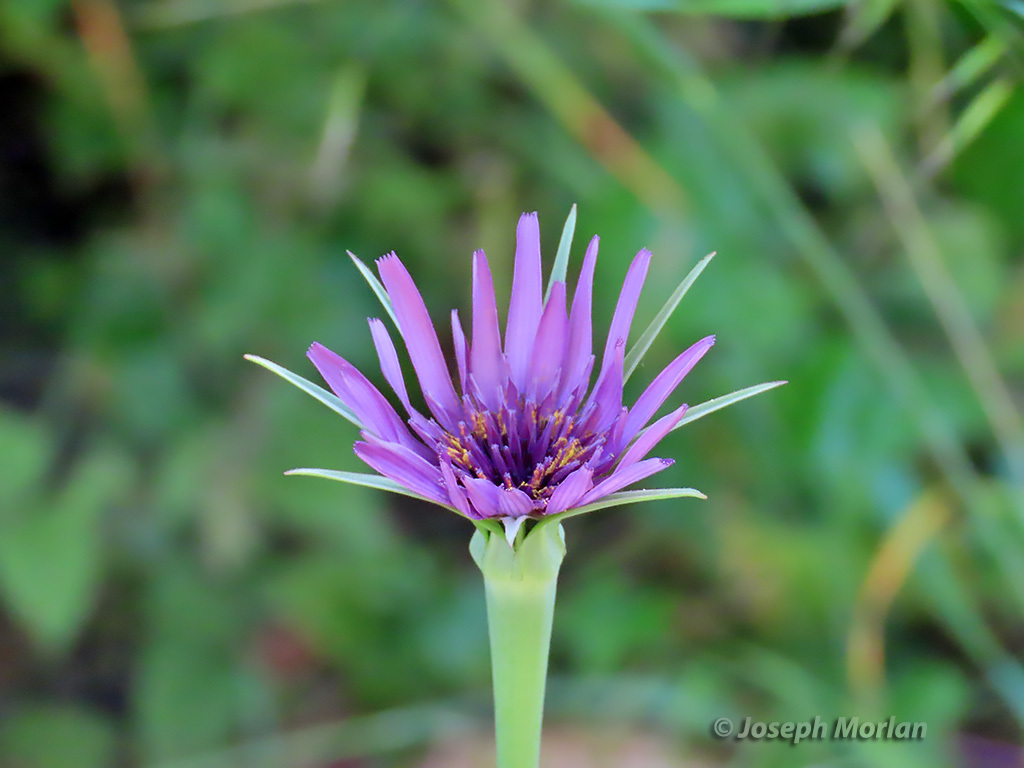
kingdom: Plantae
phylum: Tracheophyta
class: Magnoliopsida
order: Asterales
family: Asteraceae
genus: Tragopogon
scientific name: Tragopogon porrifolius
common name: Salsify
